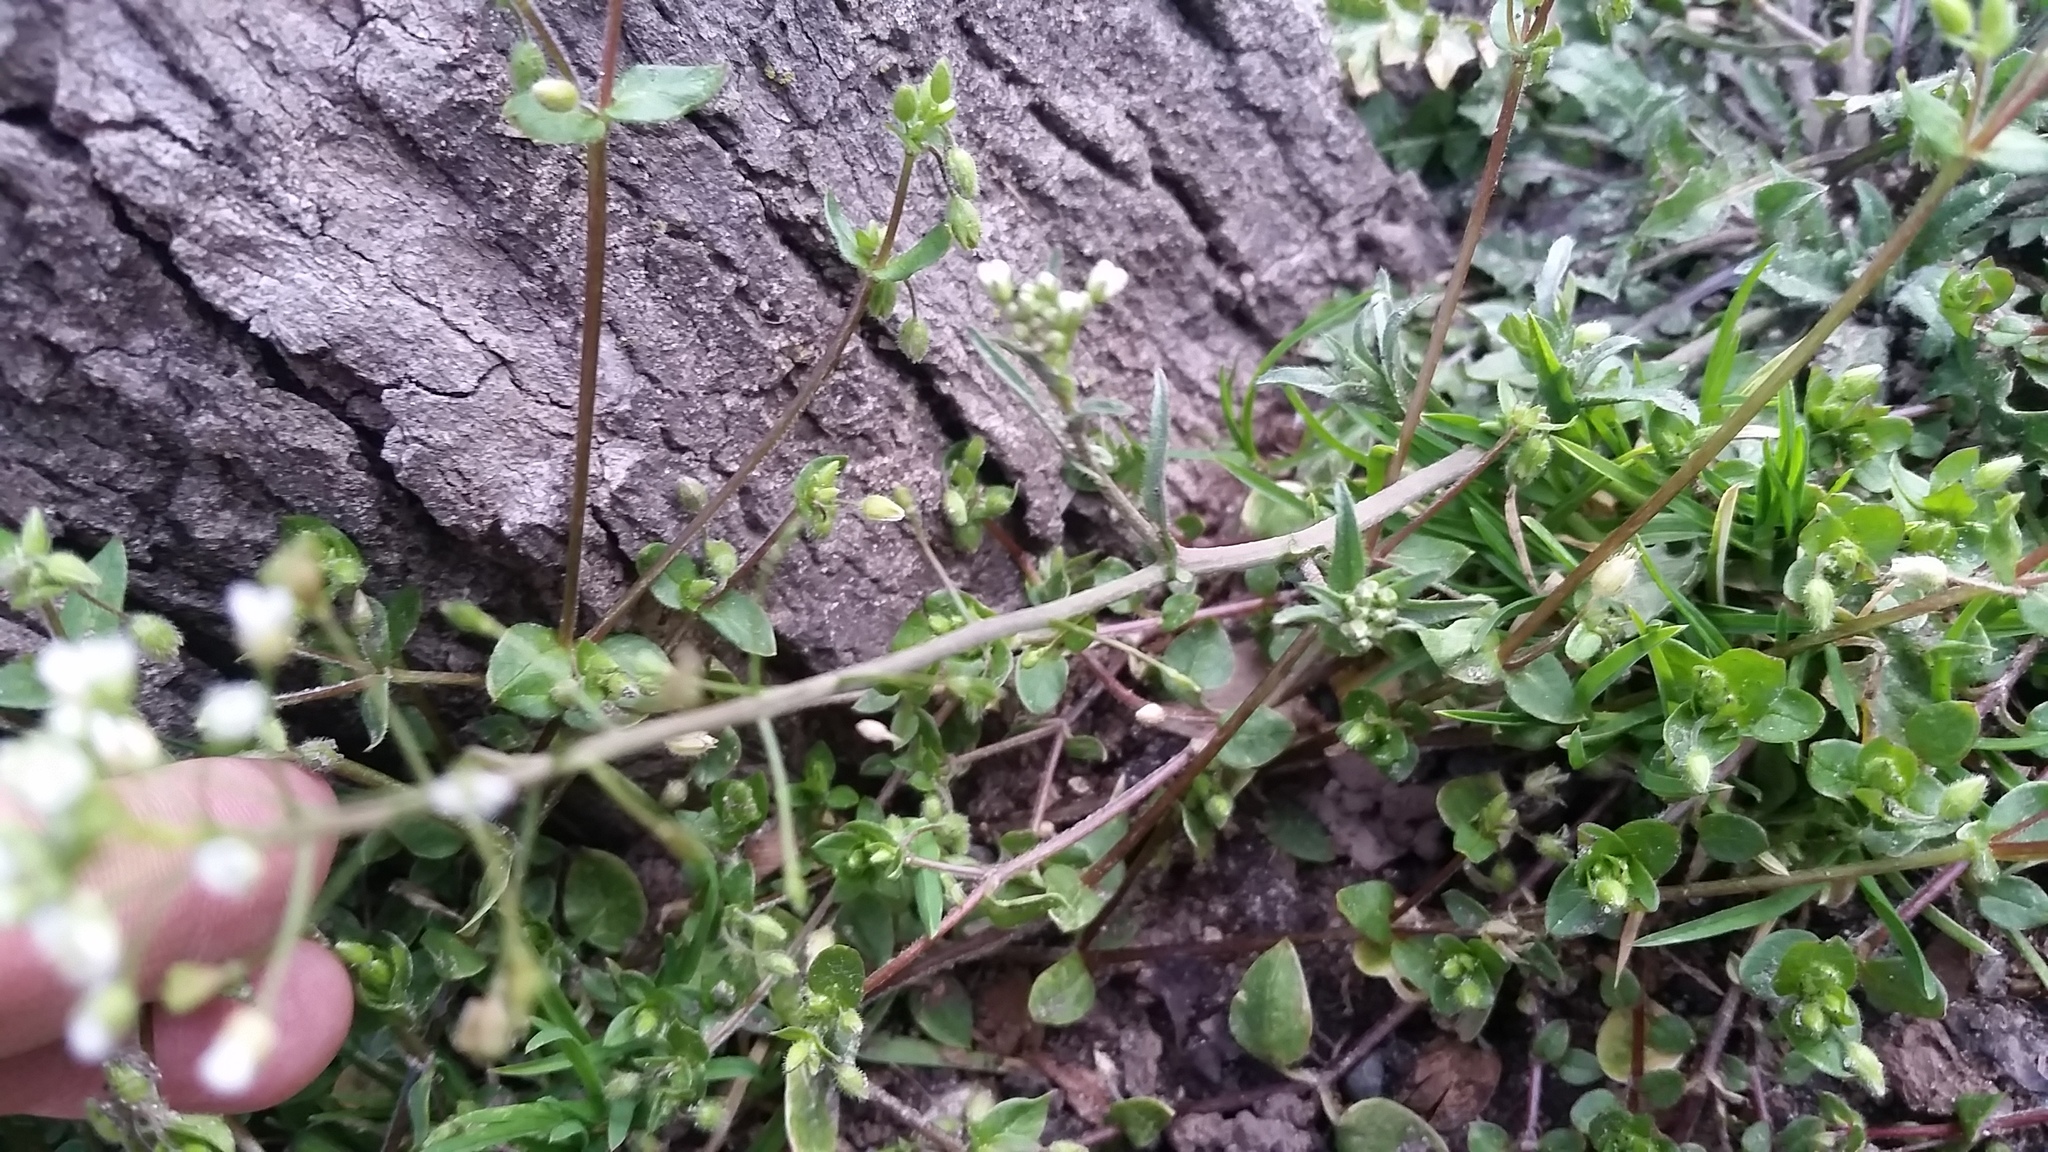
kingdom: Plantae
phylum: Tracheophyta
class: Magnoliopsida
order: Brassicales
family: Brassicaceae
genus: Capsella
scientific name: Capsella bursa-pastoris
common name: Shepherd's purse
